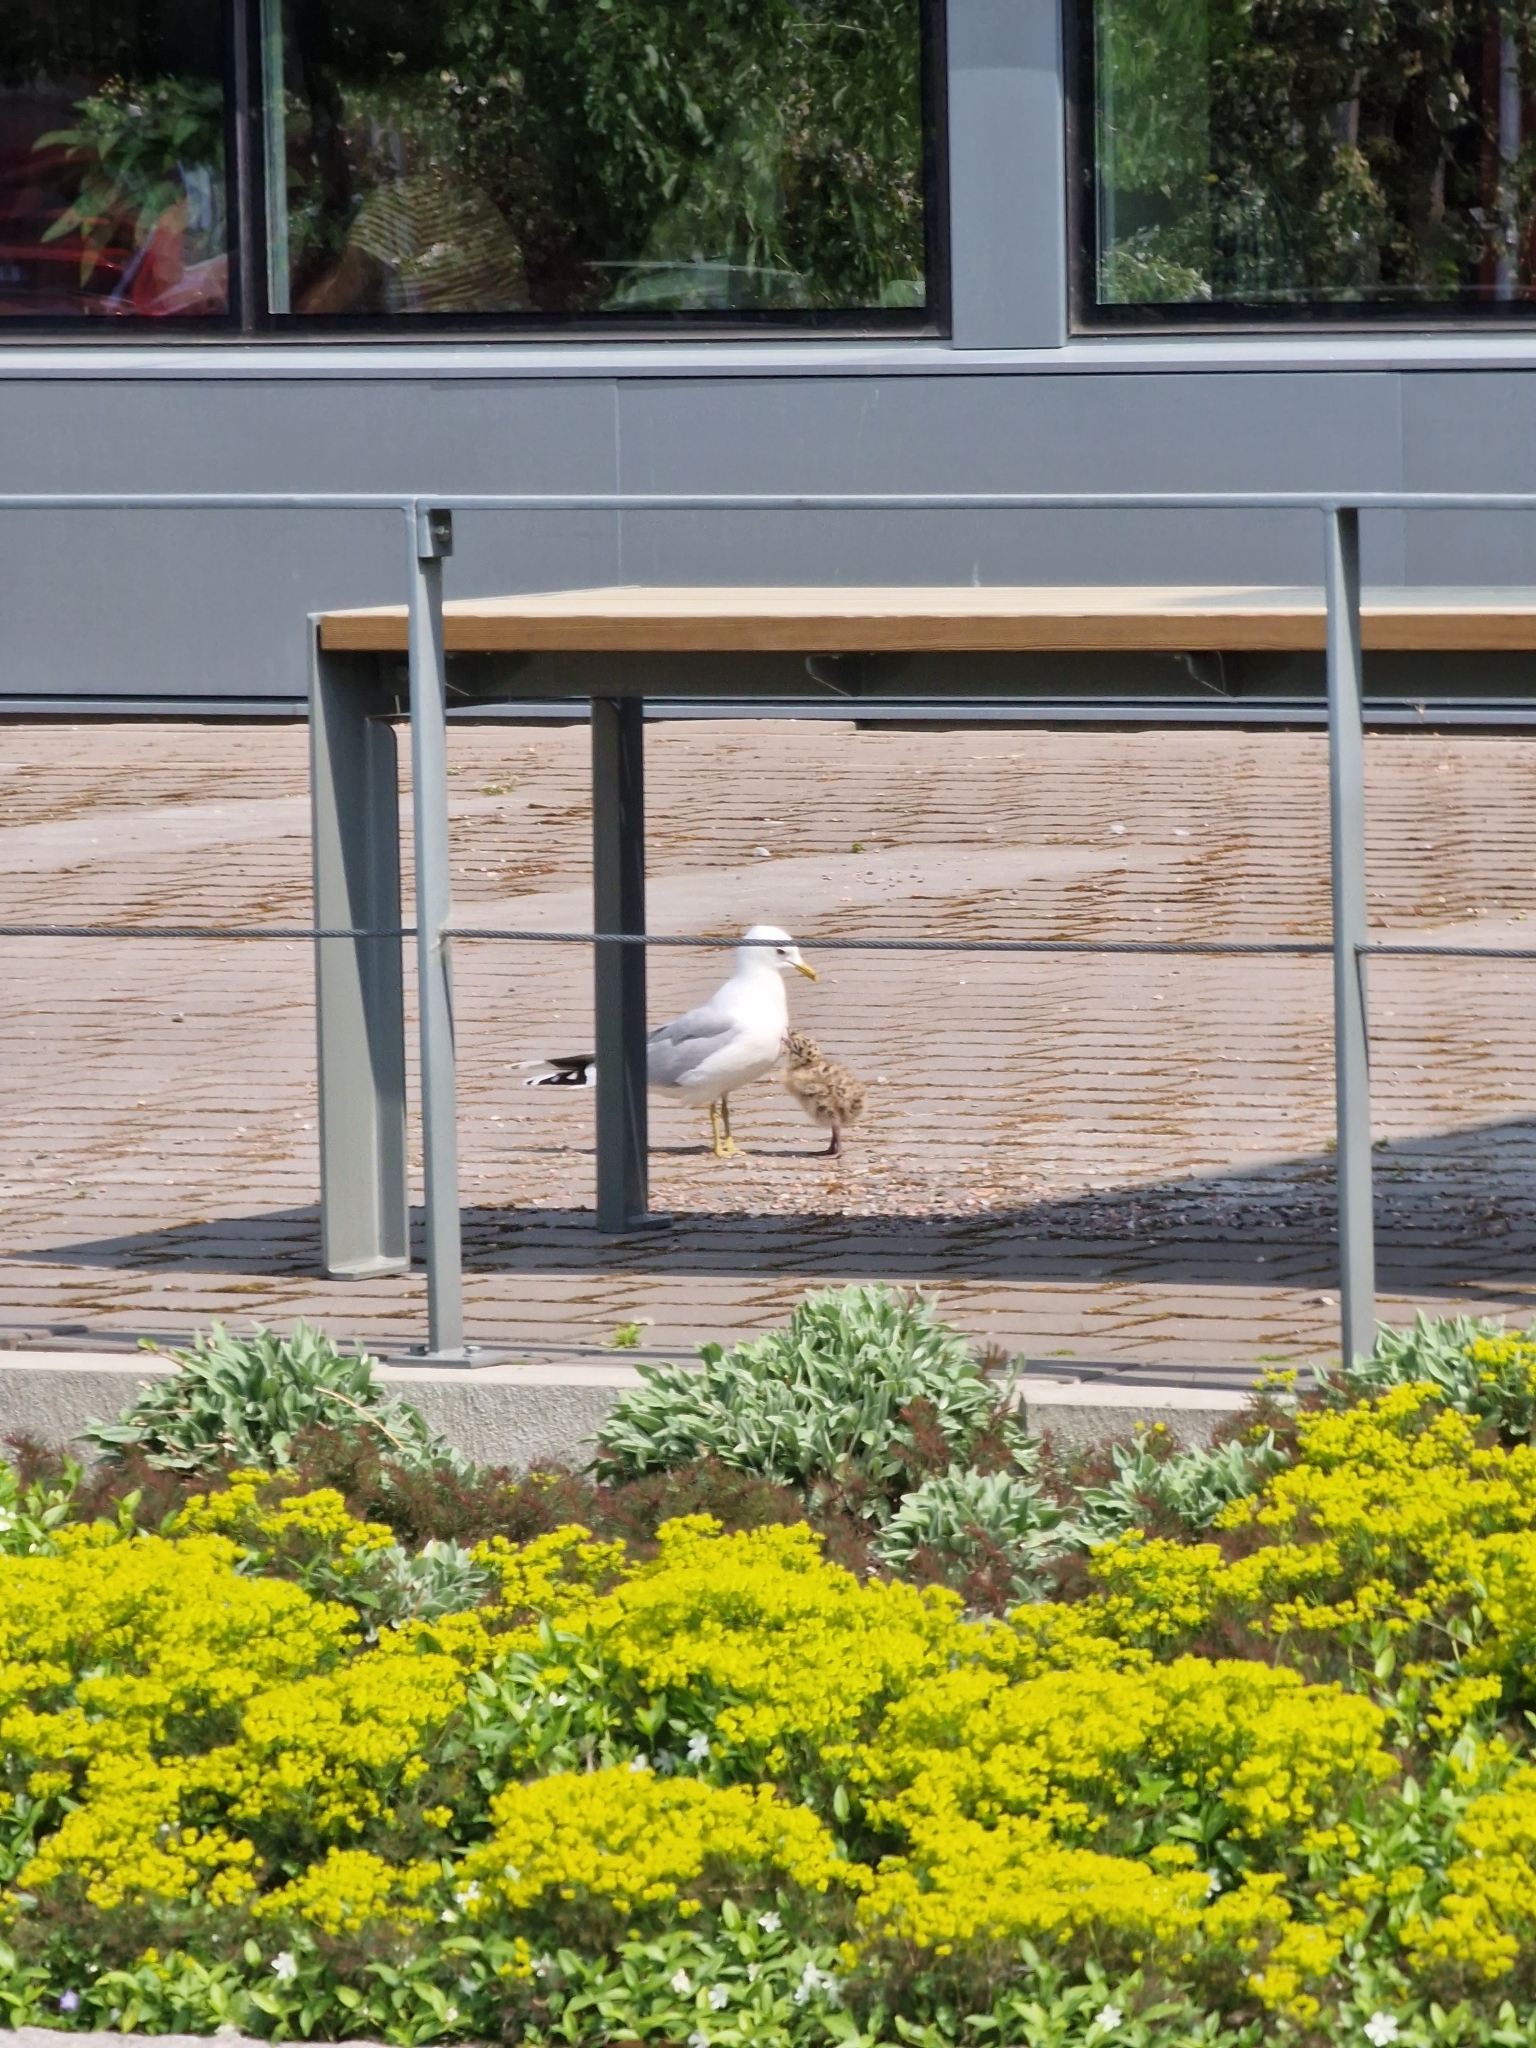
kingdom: Animalia
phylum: Chordata
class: Aves
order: Charadriiformes
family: Laridae
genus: Larus
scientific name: Larus canus
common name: Mew gull
